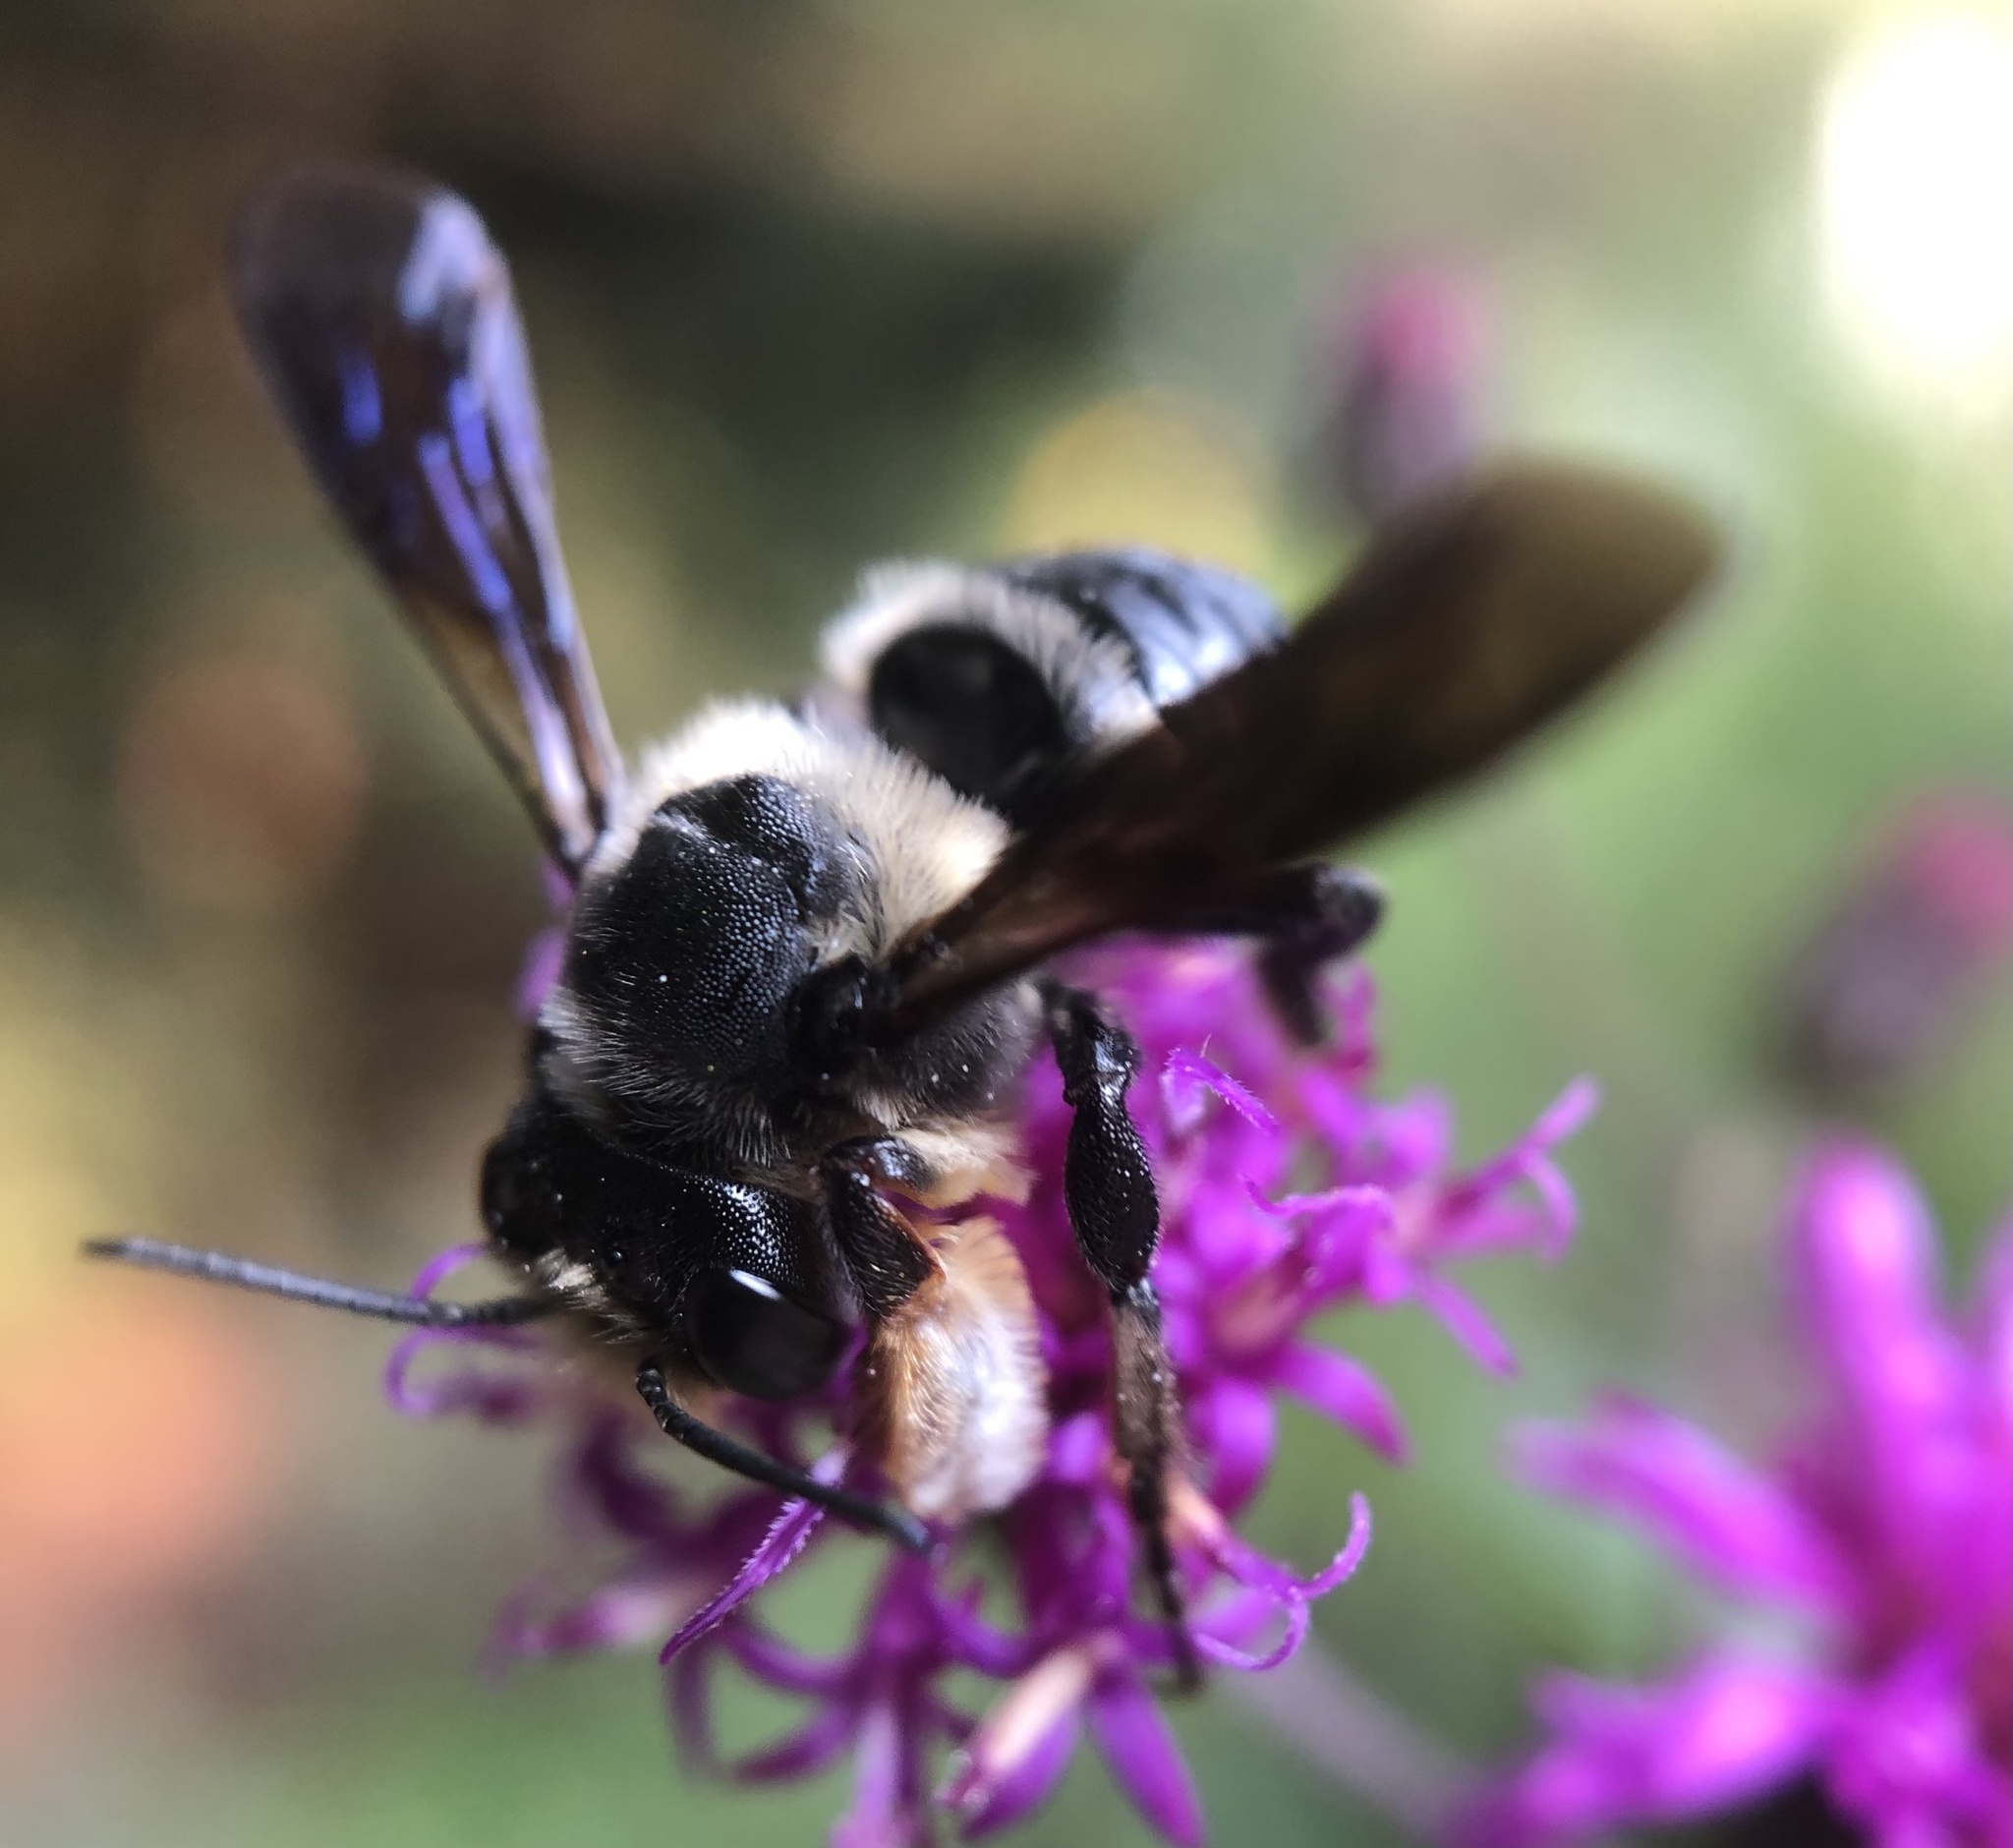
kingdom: Animalia
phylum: Arthropoda
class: Insecta
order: Hymenoptera
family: Megachilidae
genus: Megachile
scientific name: Megachile xylocopoides
